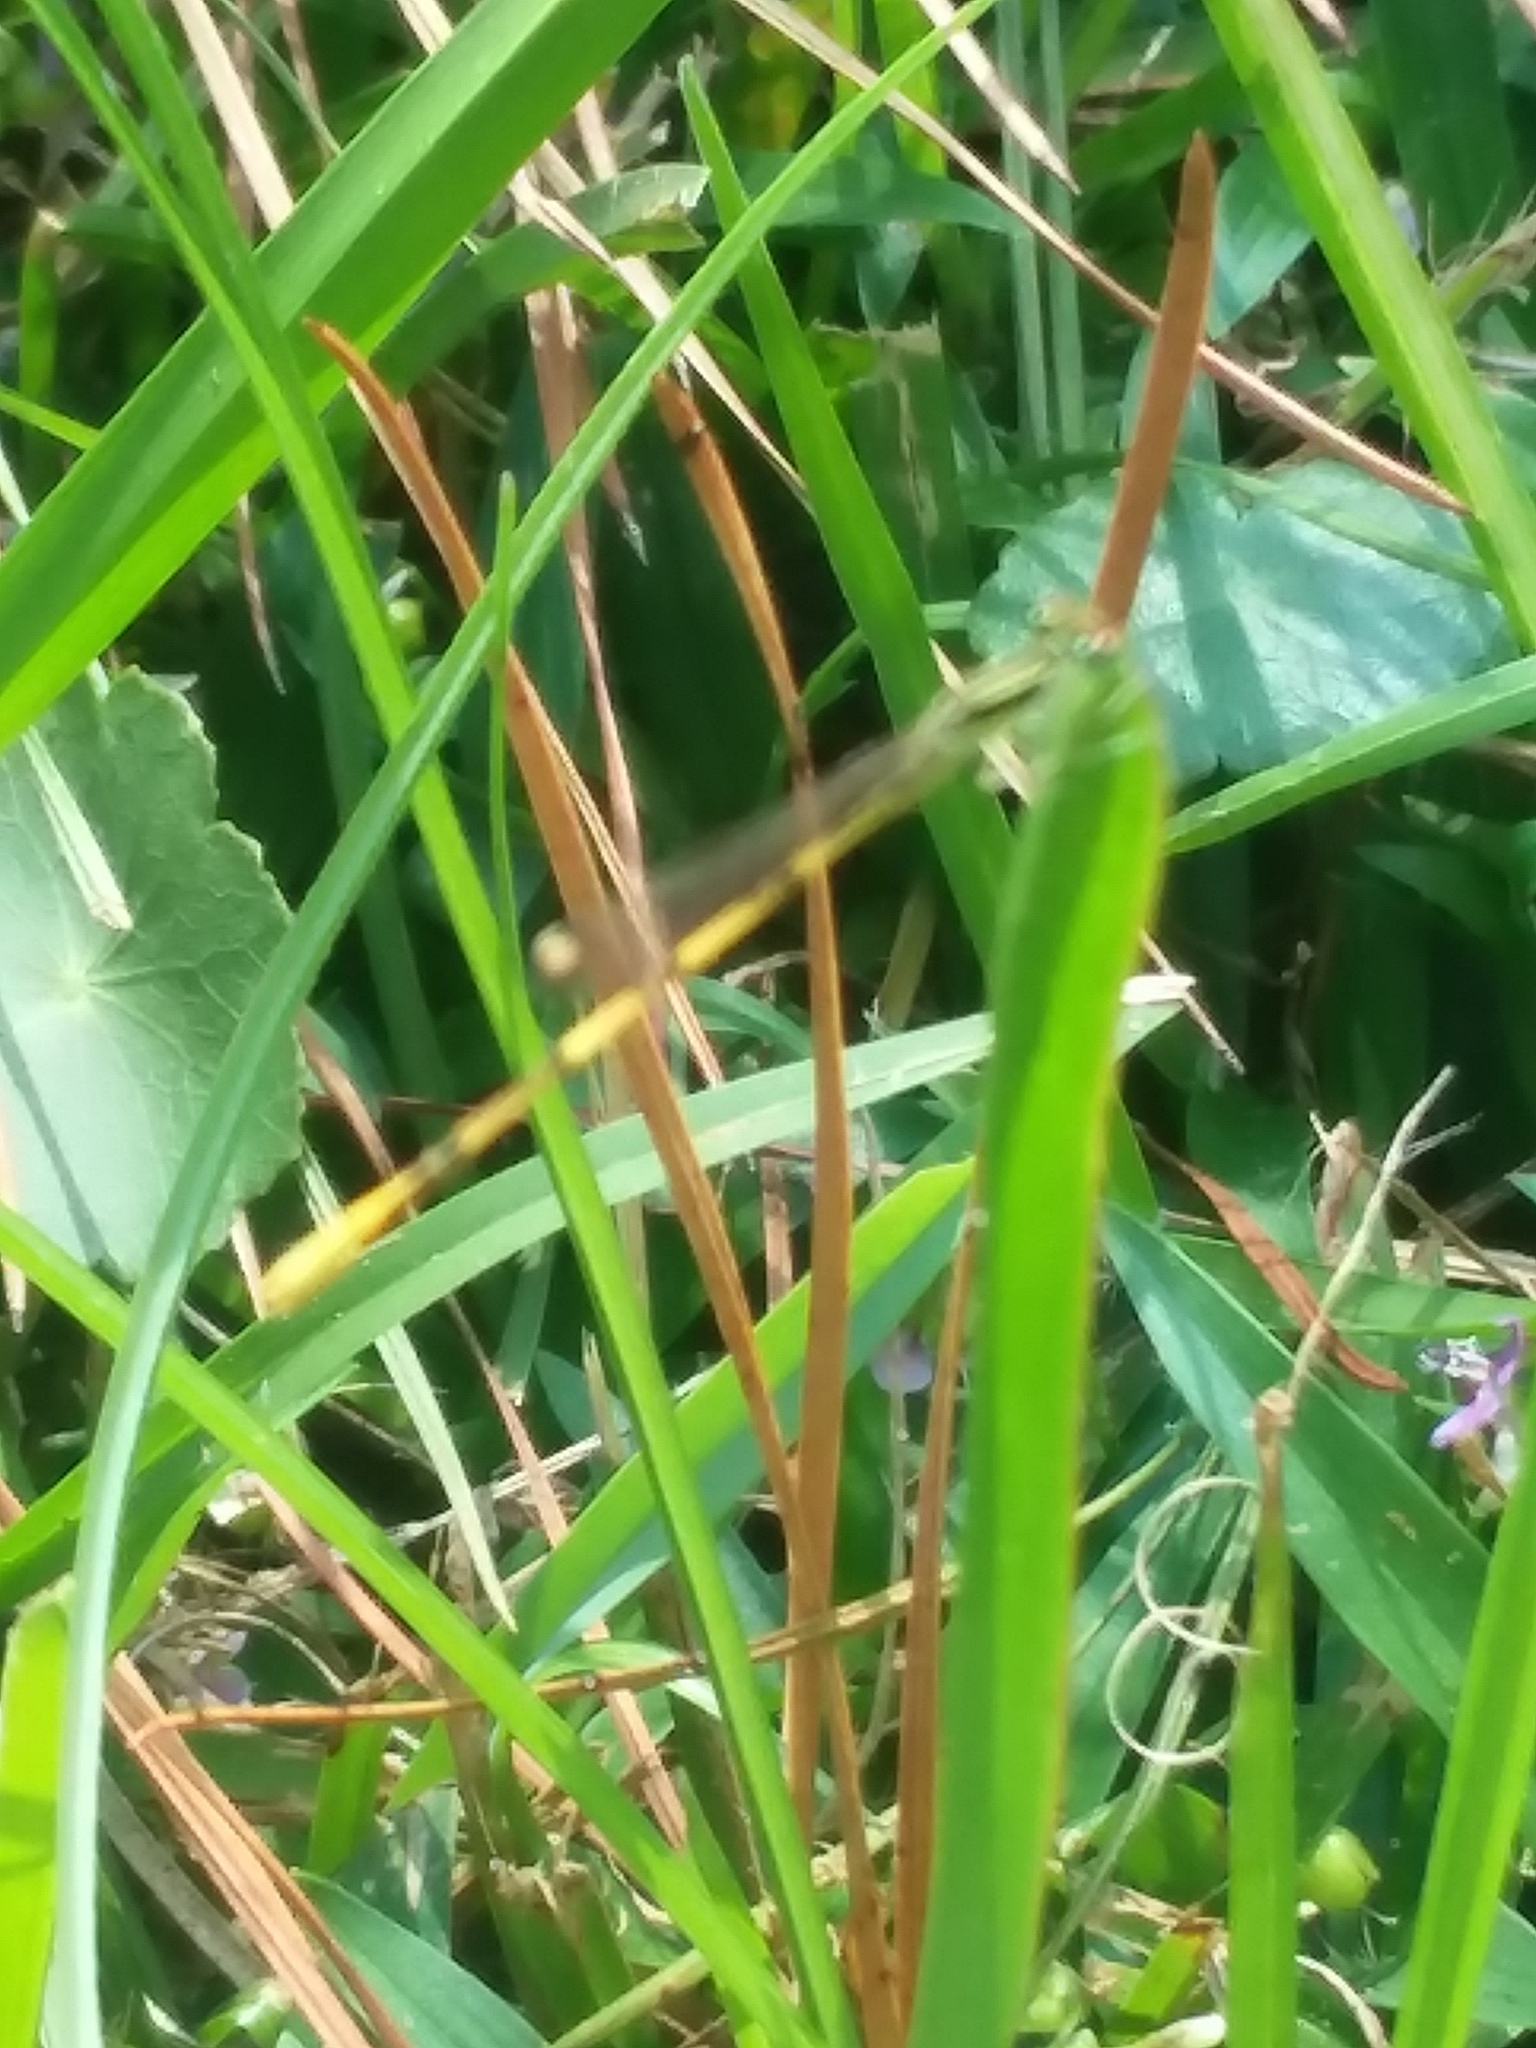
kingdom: Animalia
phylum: Arthropoda
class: Insecta
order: Odonata
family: Coenagrionidae
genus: Ischnura
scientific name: Ischnura hastata
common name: Citrine forktail
